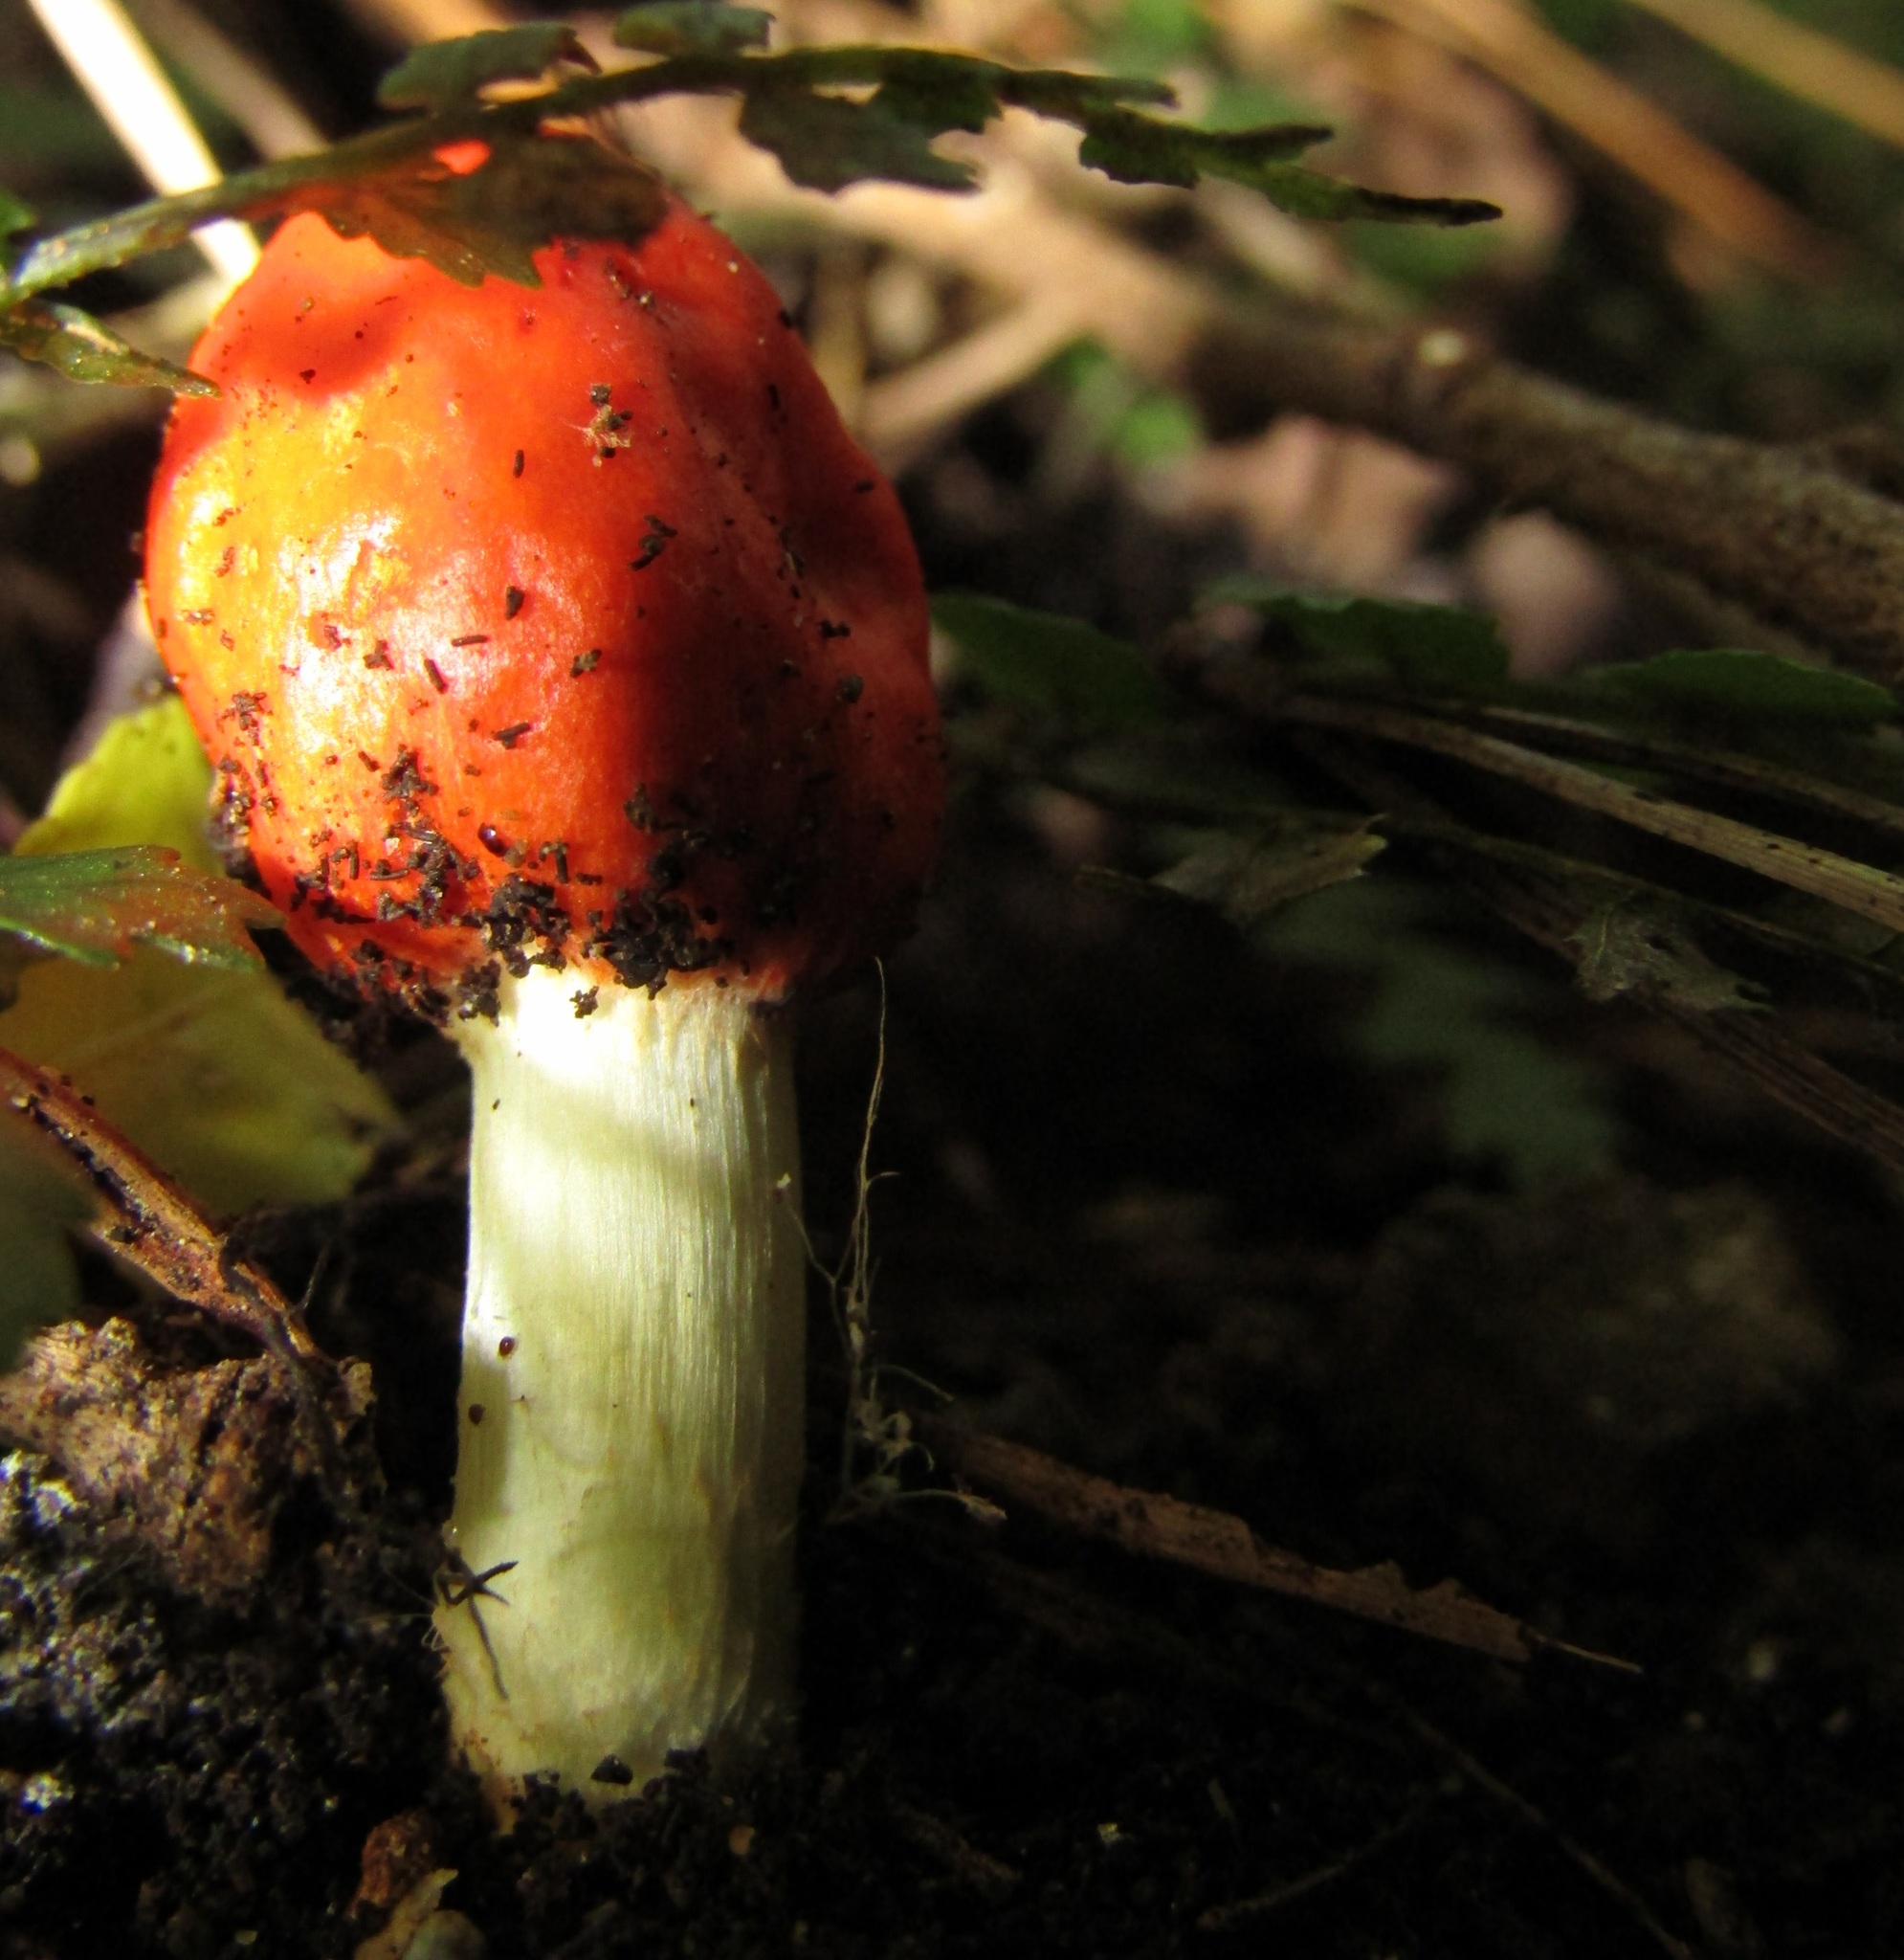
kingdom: Fungi
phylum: Basidiomycota
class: Agaricomycetes
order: Agaricales
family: Strophariaceae
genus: Leratiomyces
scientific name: Leratiomyces erythrocephalus
